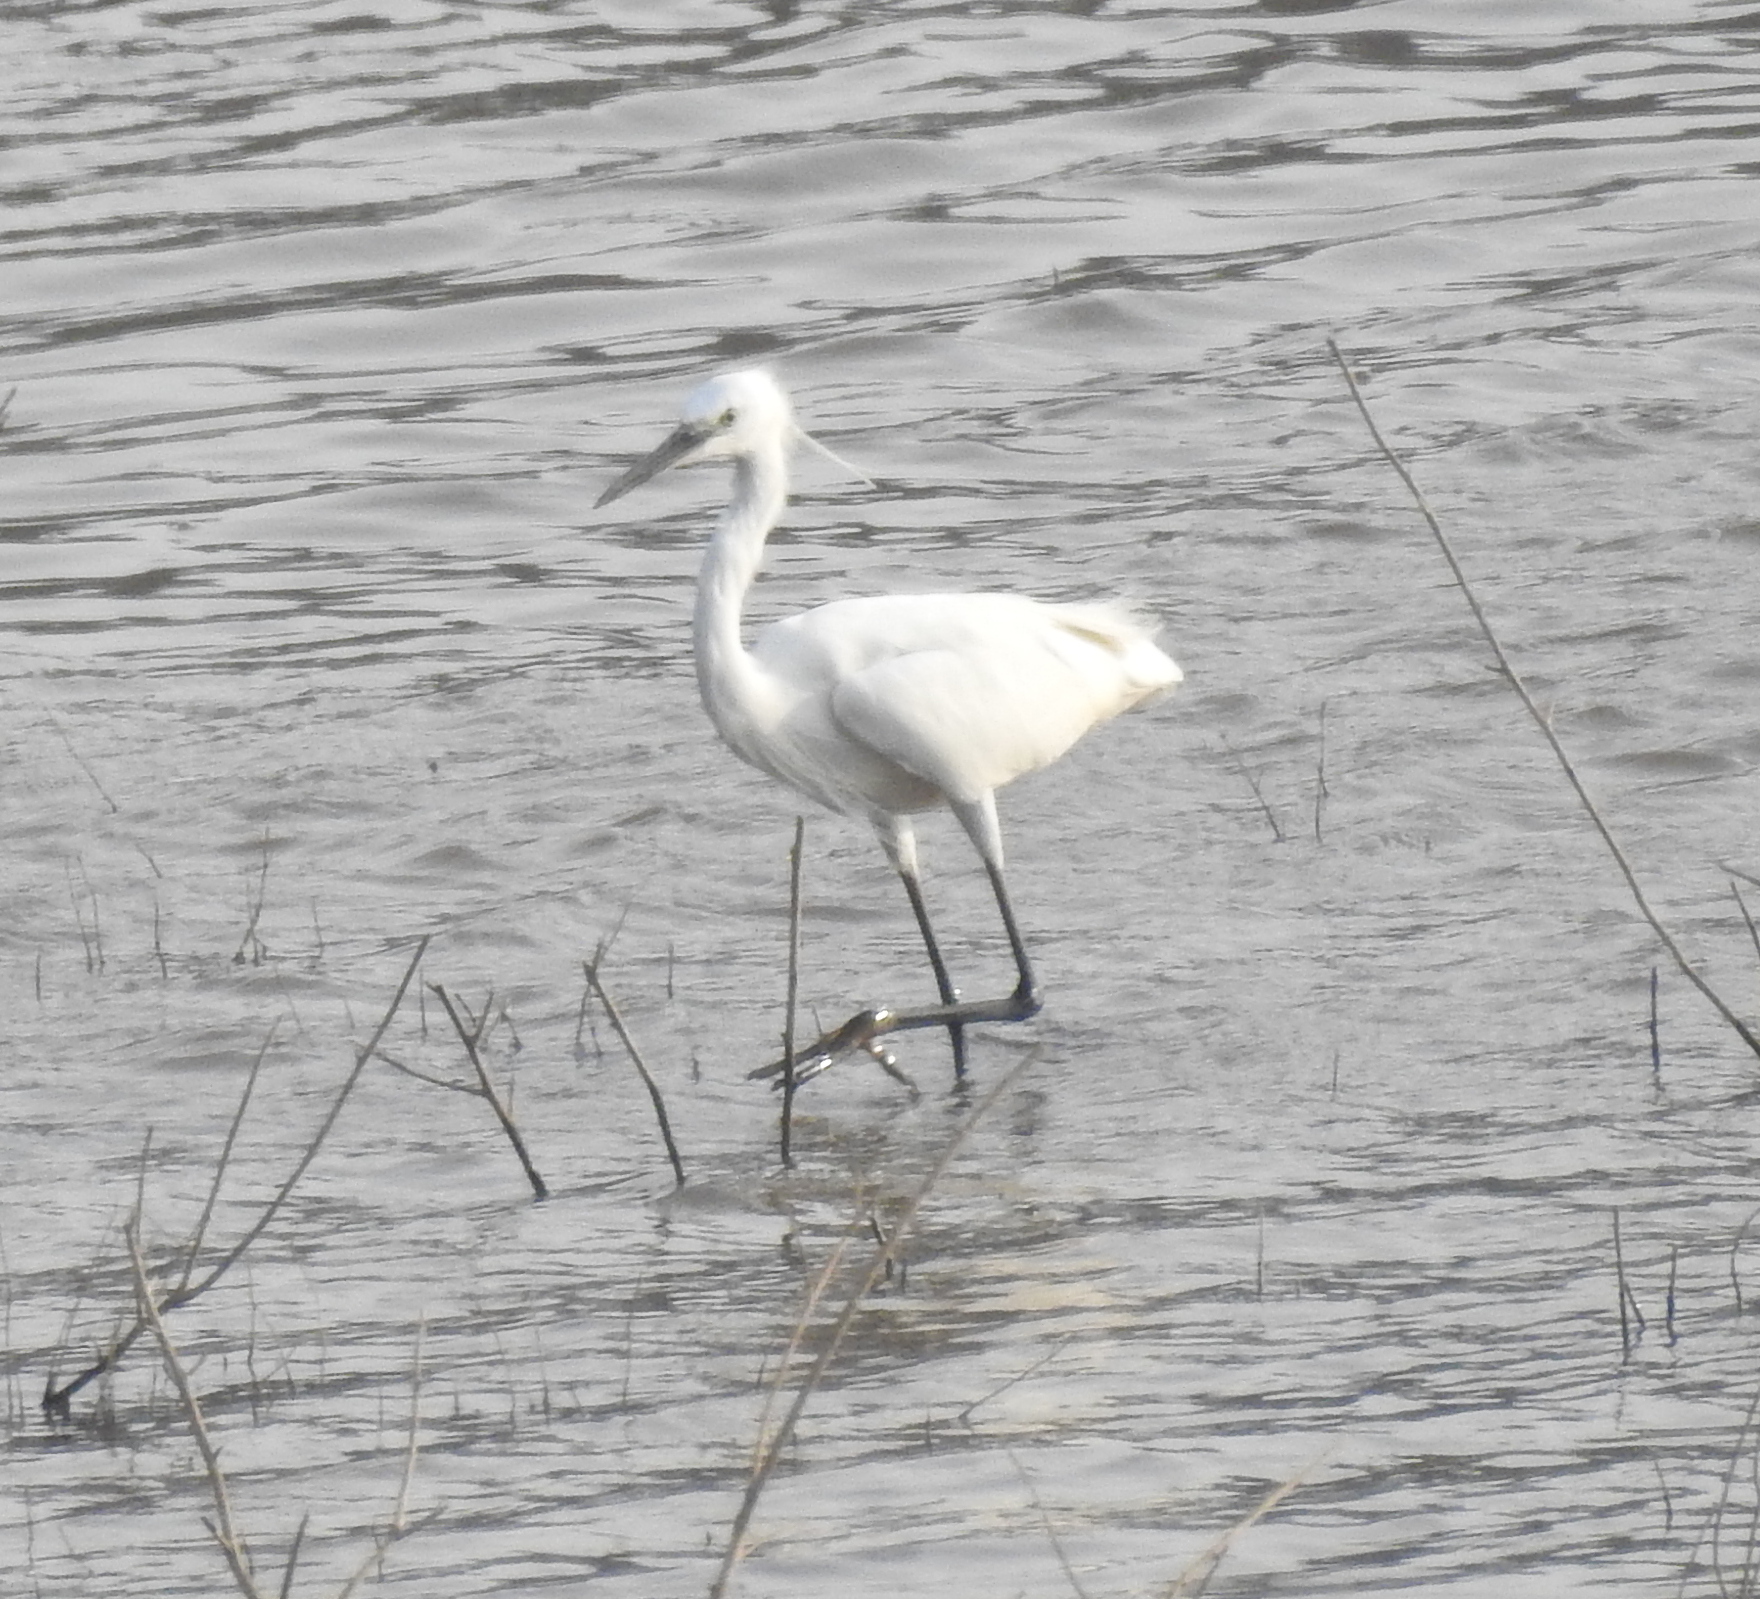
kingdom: Animalia
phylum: Chordata
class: Aves
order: Pelecaniformes
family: Ardeidae
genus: Egretta
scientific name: Egretta garzetta
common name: Little egret
